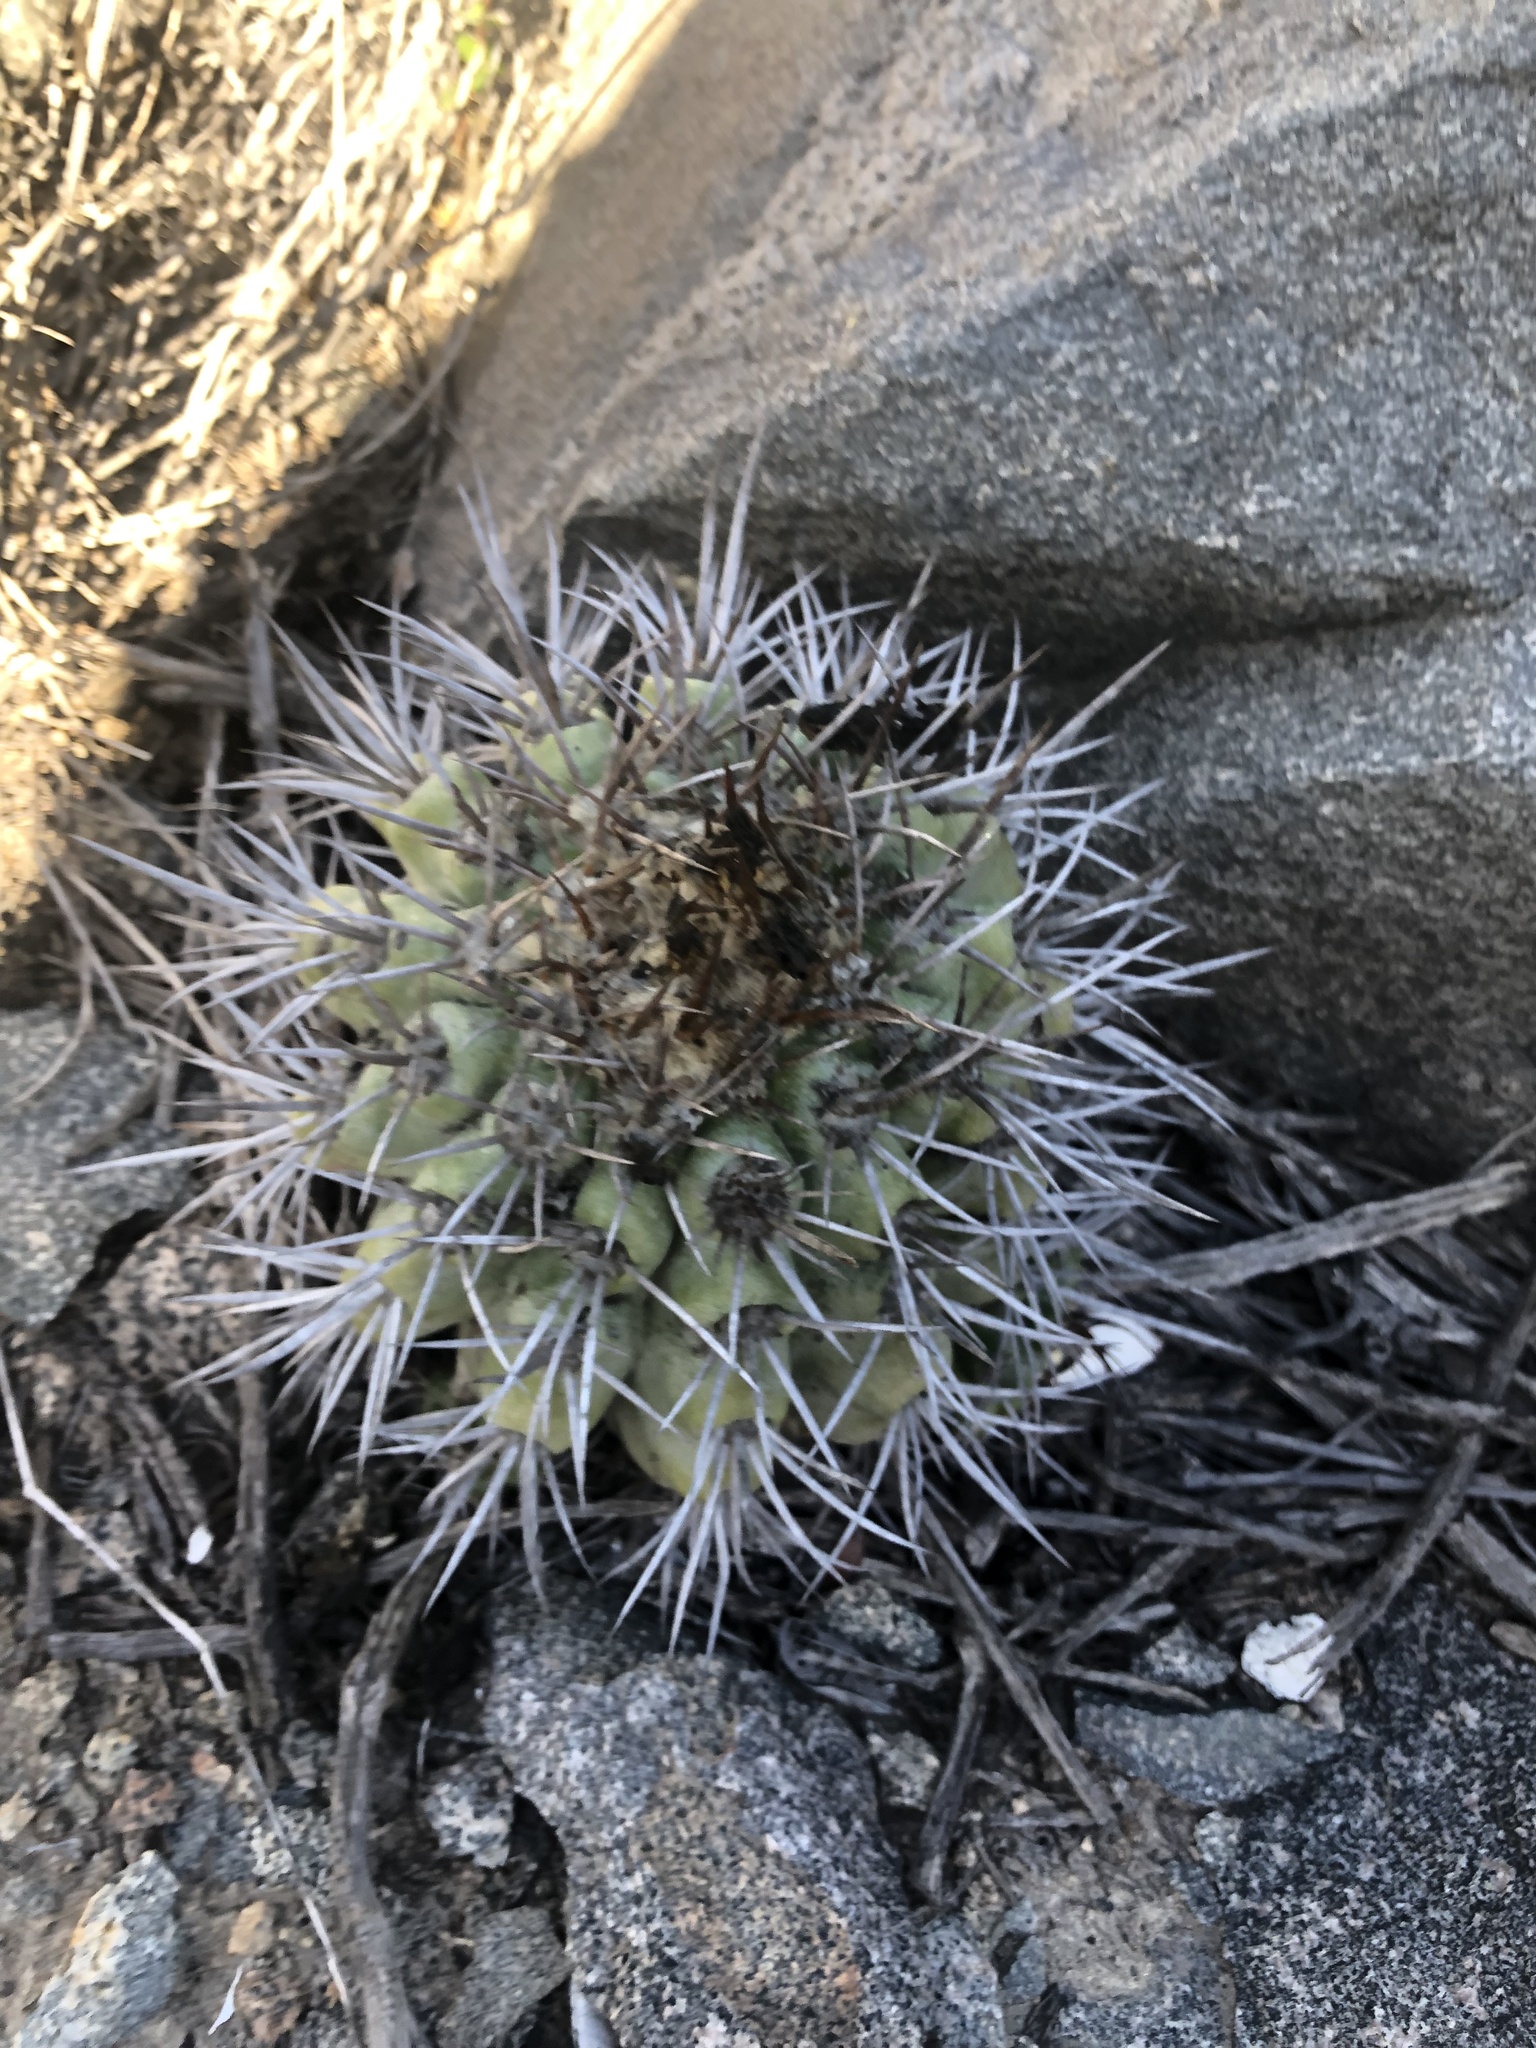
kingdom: Plantae
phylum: Tracheophyta
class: Magnoliopsida
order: Caryophyllales
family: Cactaceae
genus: Copiapoa
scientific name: Copiapoa coquimbana
